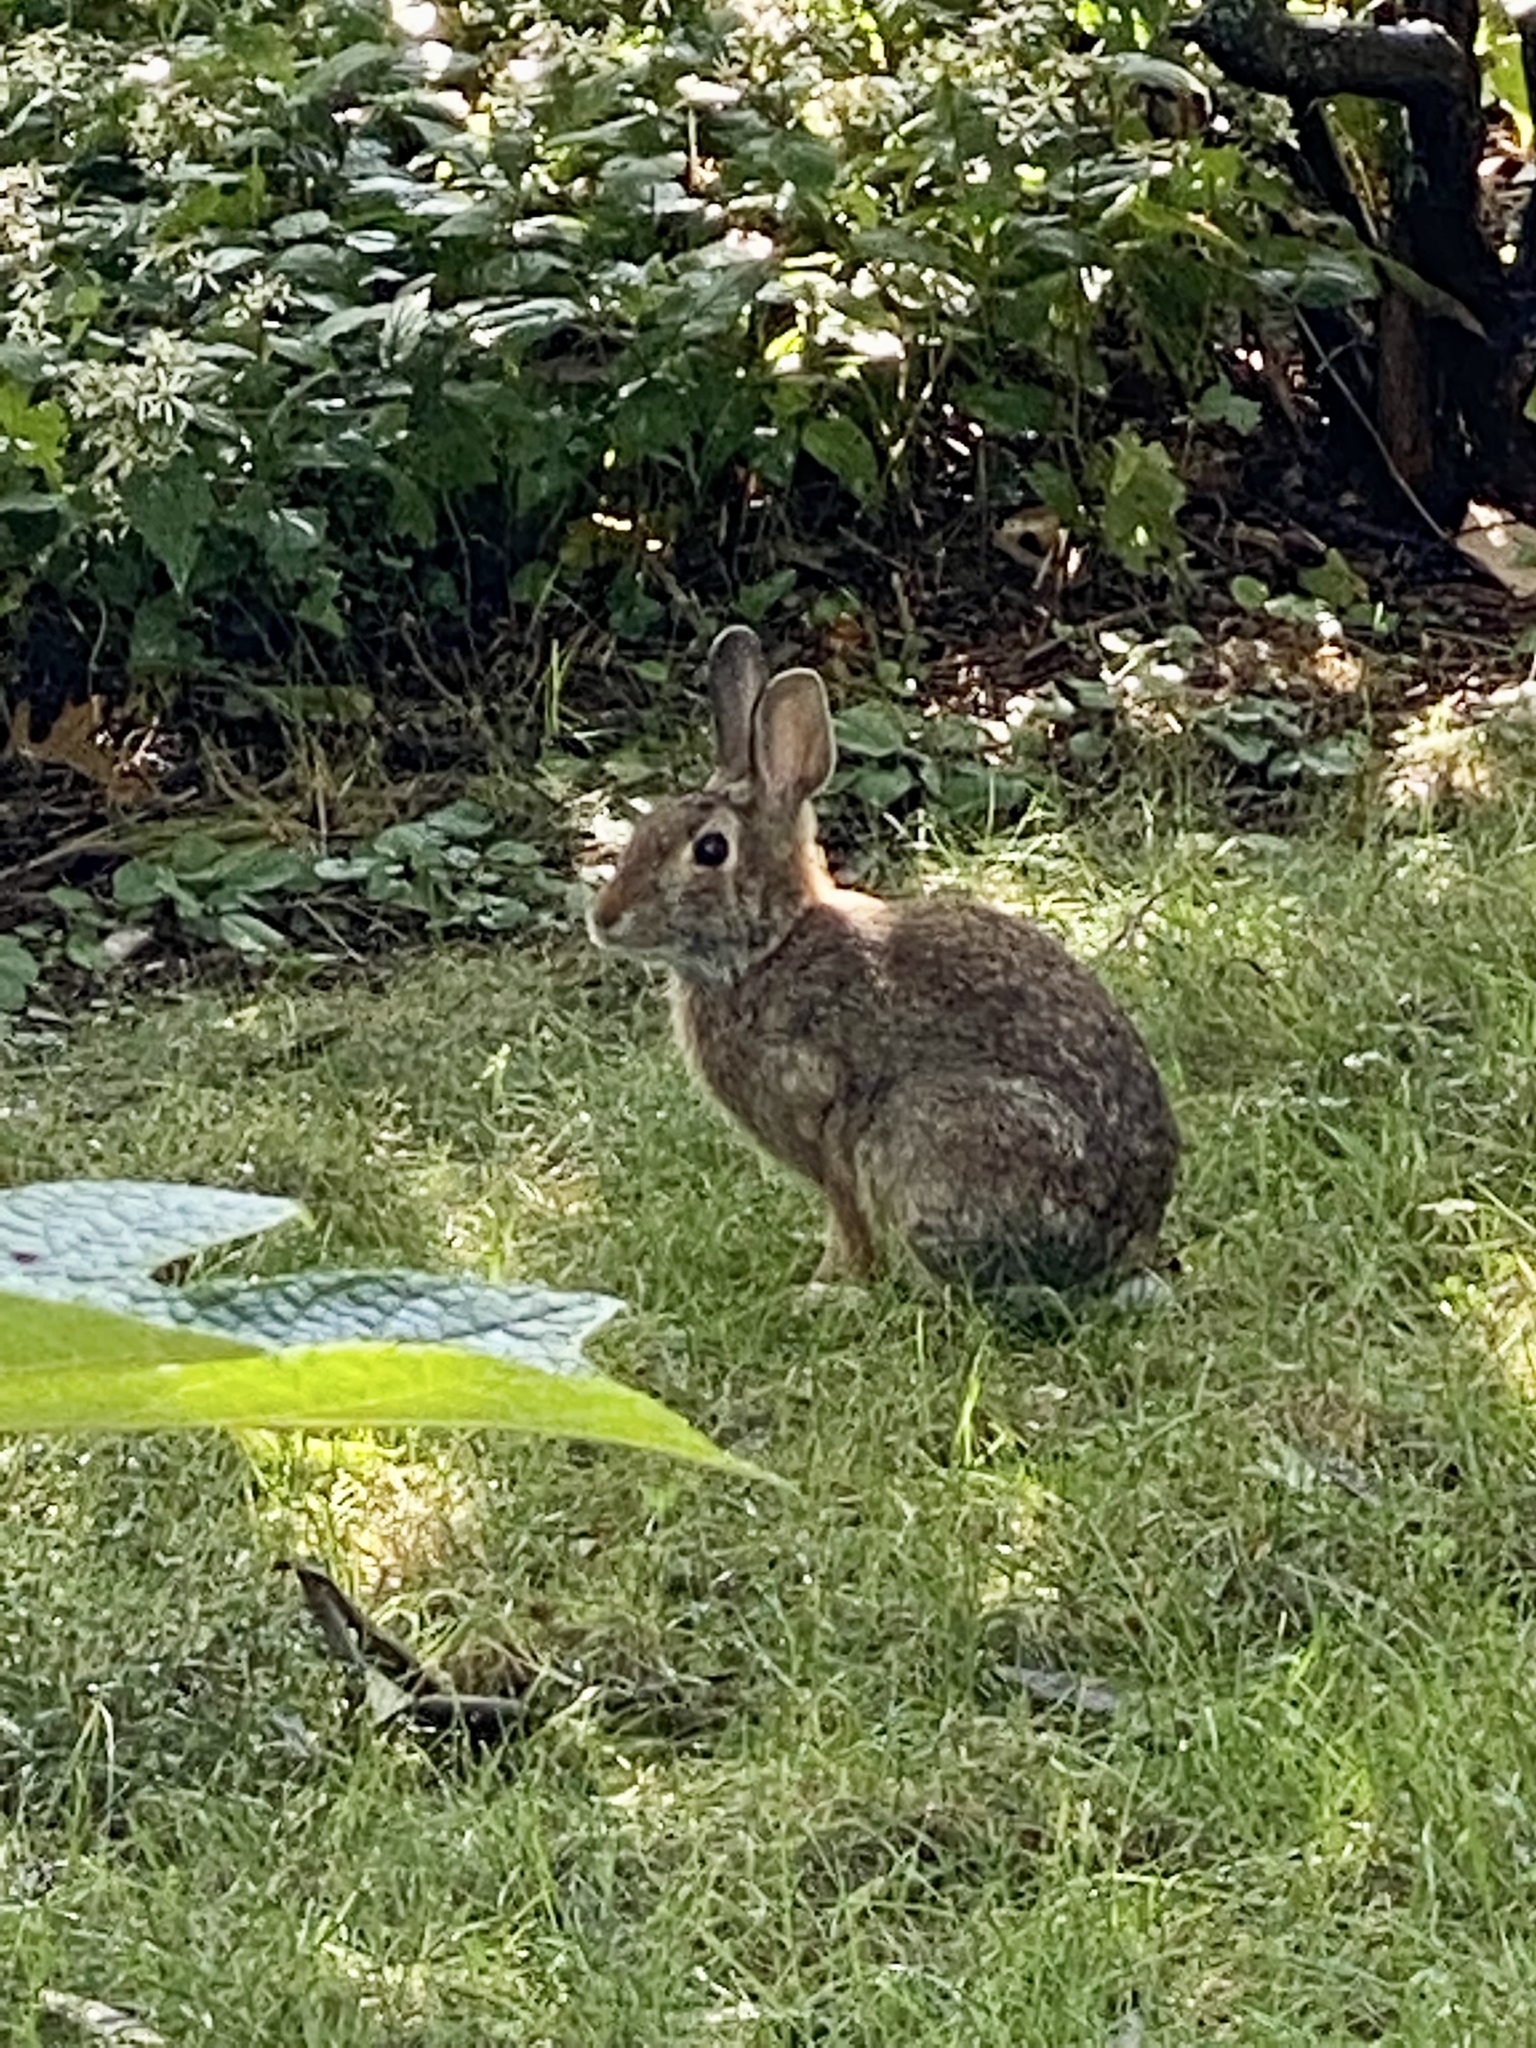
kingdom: Animalia
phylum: Chordata
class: Mammalia
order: Lagomorpha
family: Leporidae
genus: Sylvilagus
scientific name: Sylvilagus floridanus
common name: Eastern cottontail
